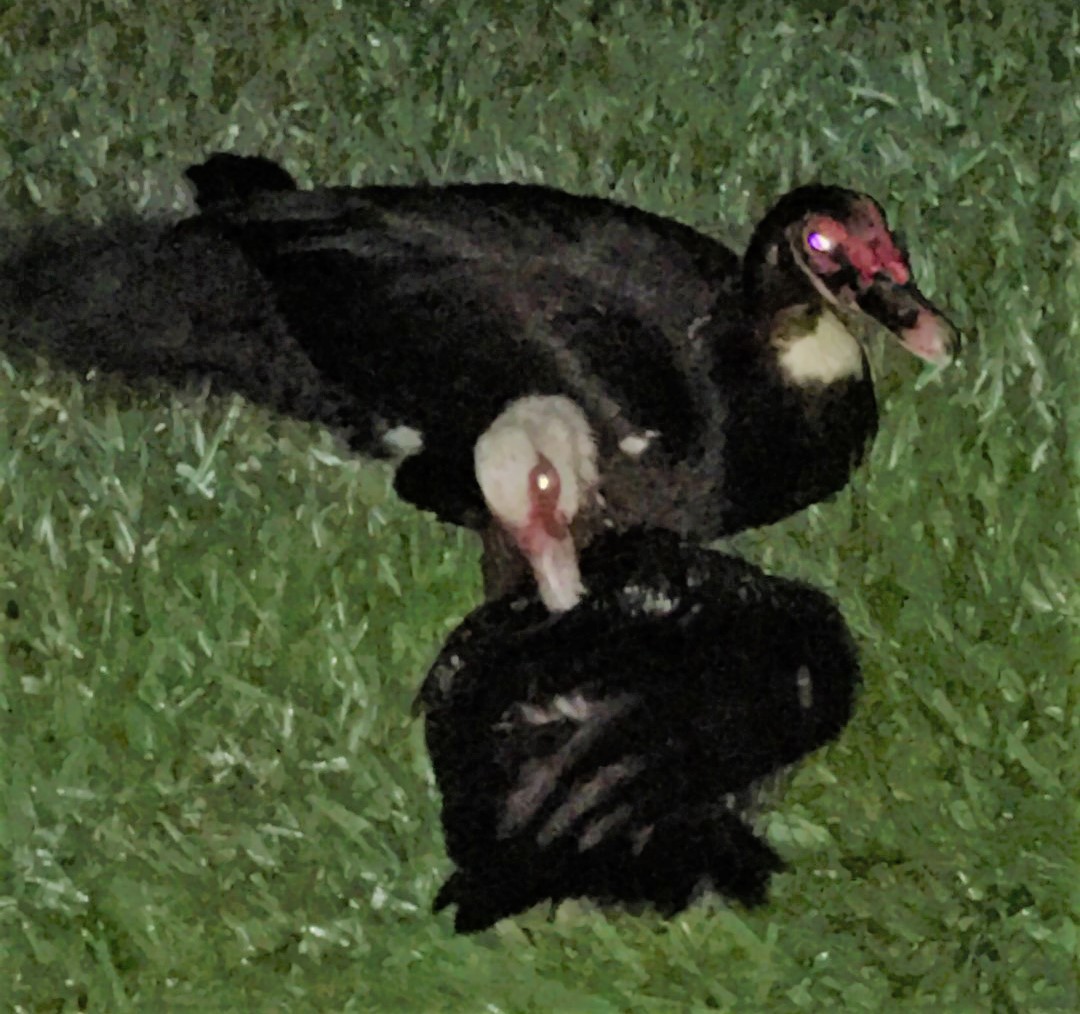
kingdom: Animalia
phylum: Chordata
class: Aves
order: Anseriformes
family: Anatidae
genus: Cairina
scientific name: Cairina moschata
